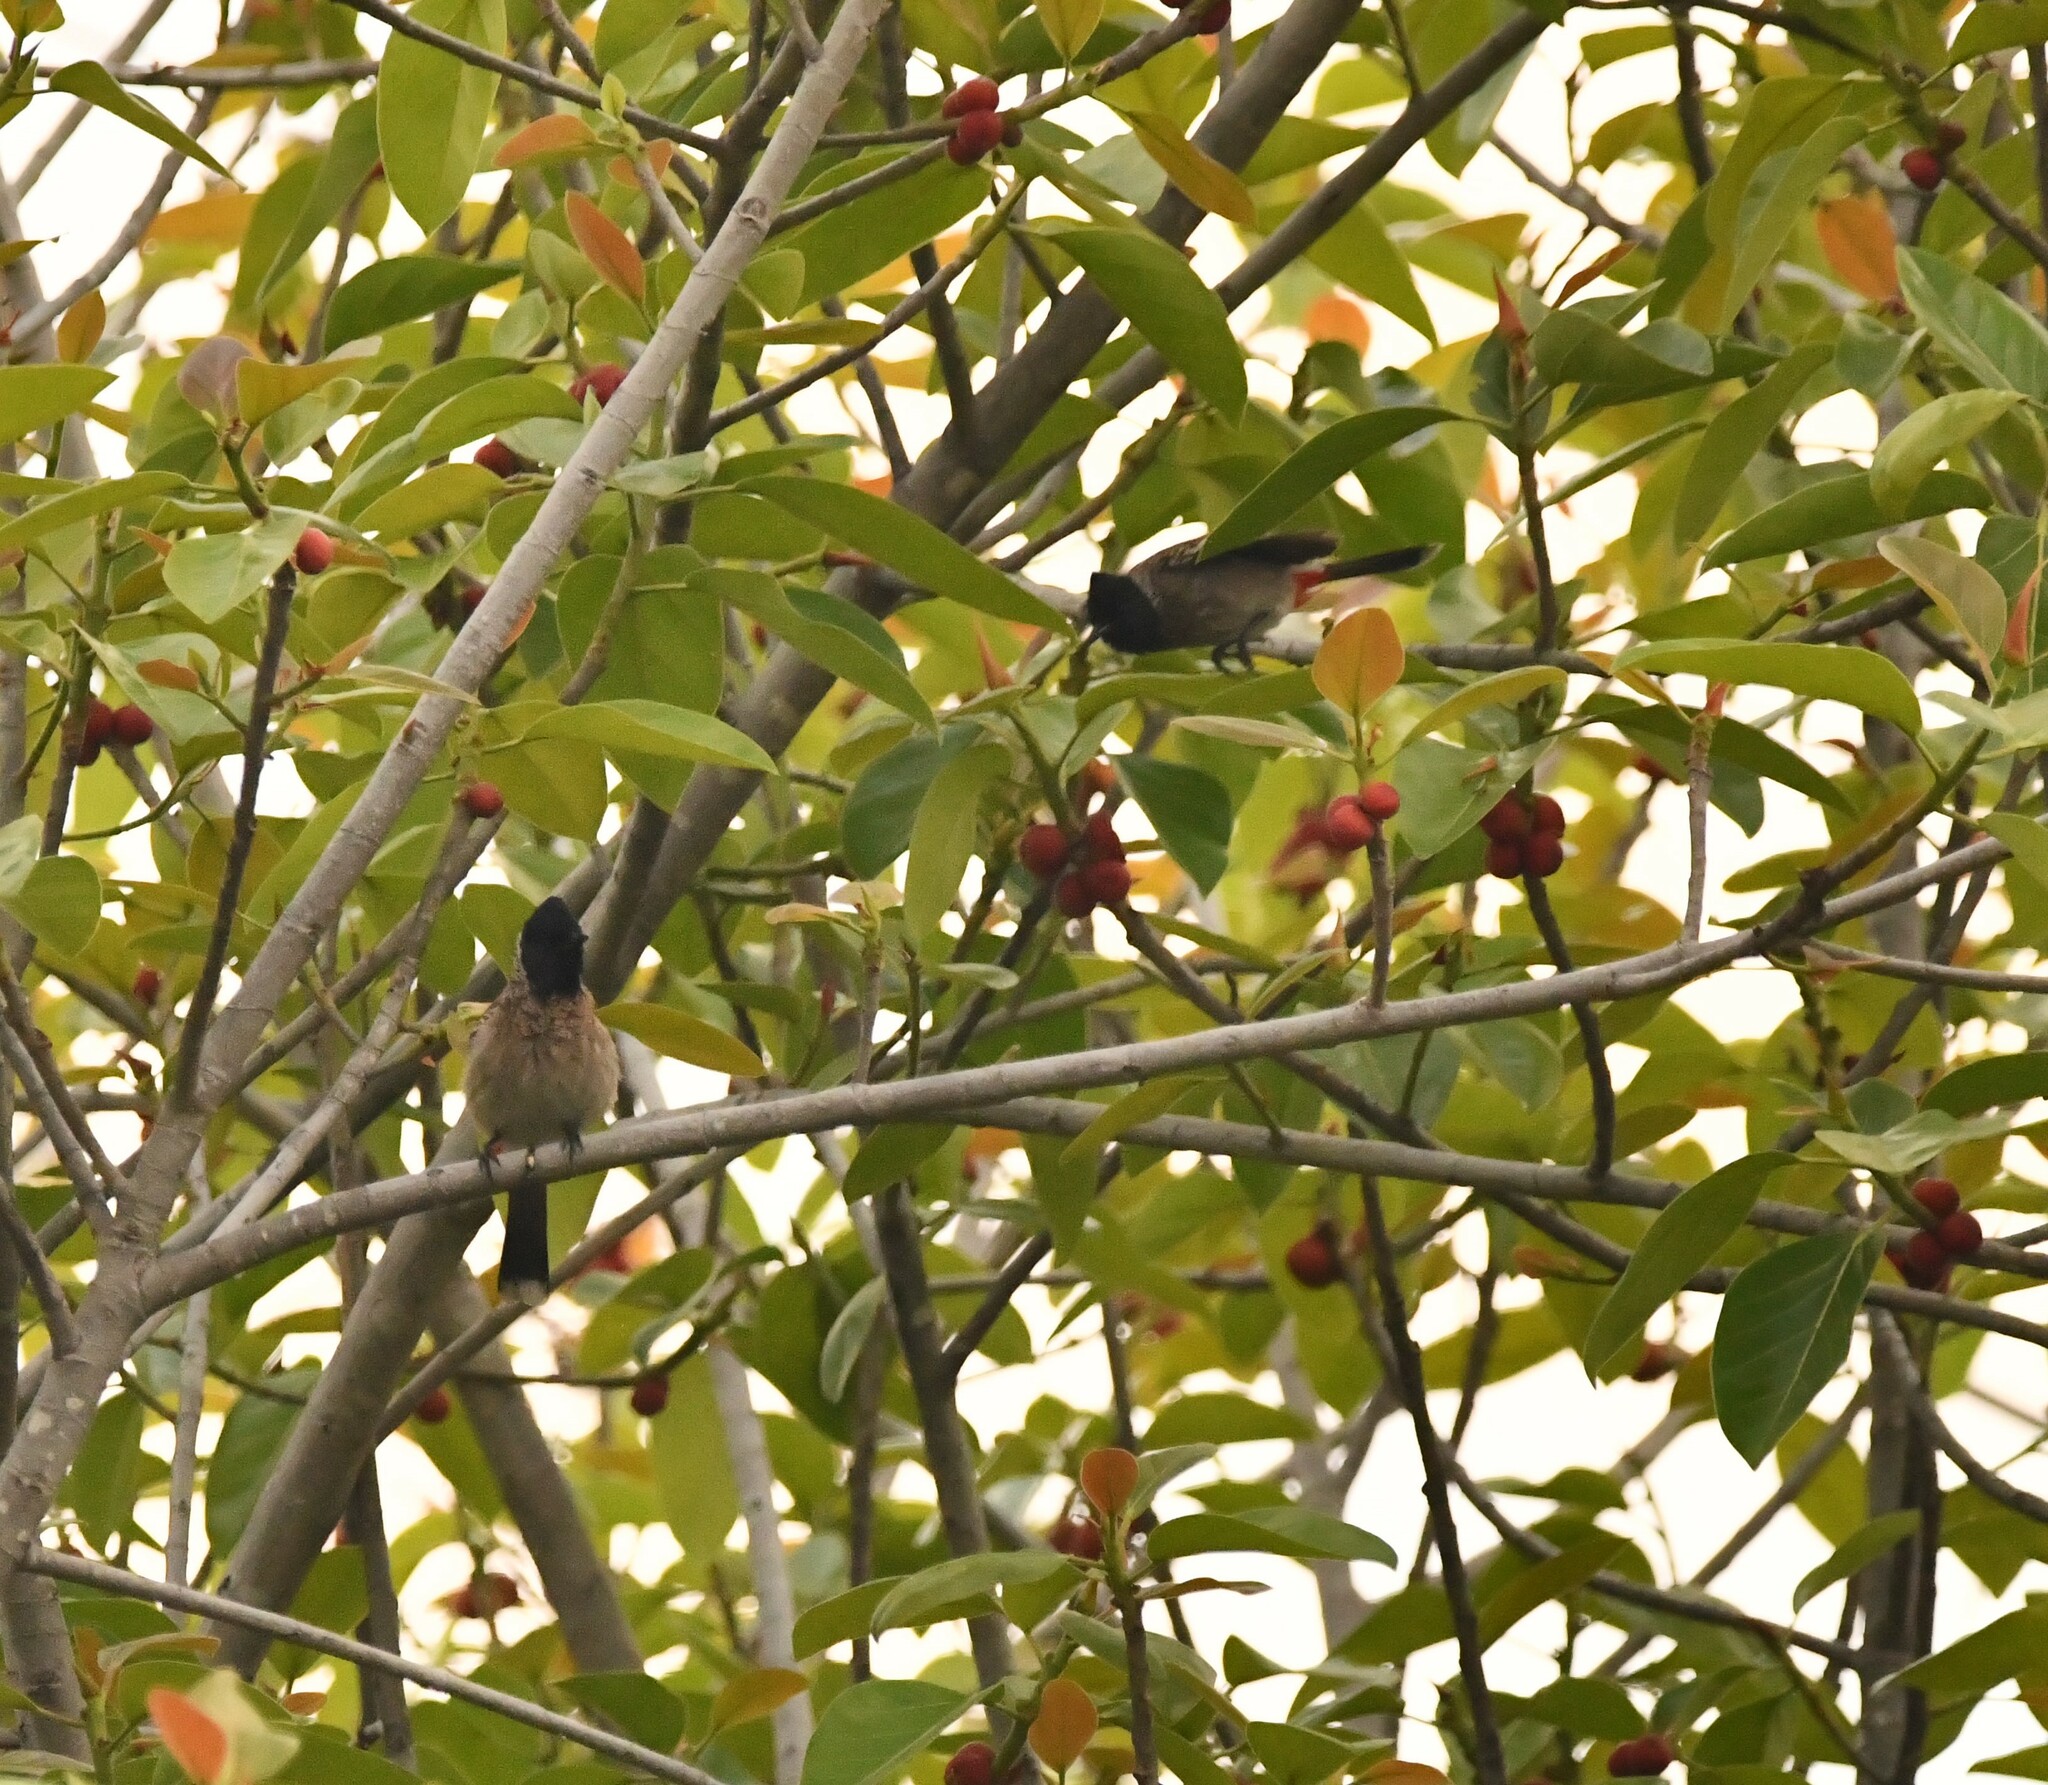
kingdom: Animalia
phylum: Chordata
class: Aves
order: Passeriformes
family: Pycnonotidae
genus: Pycnonotus
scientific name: Pycnonotus cafer
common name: Red-vented bulbul
